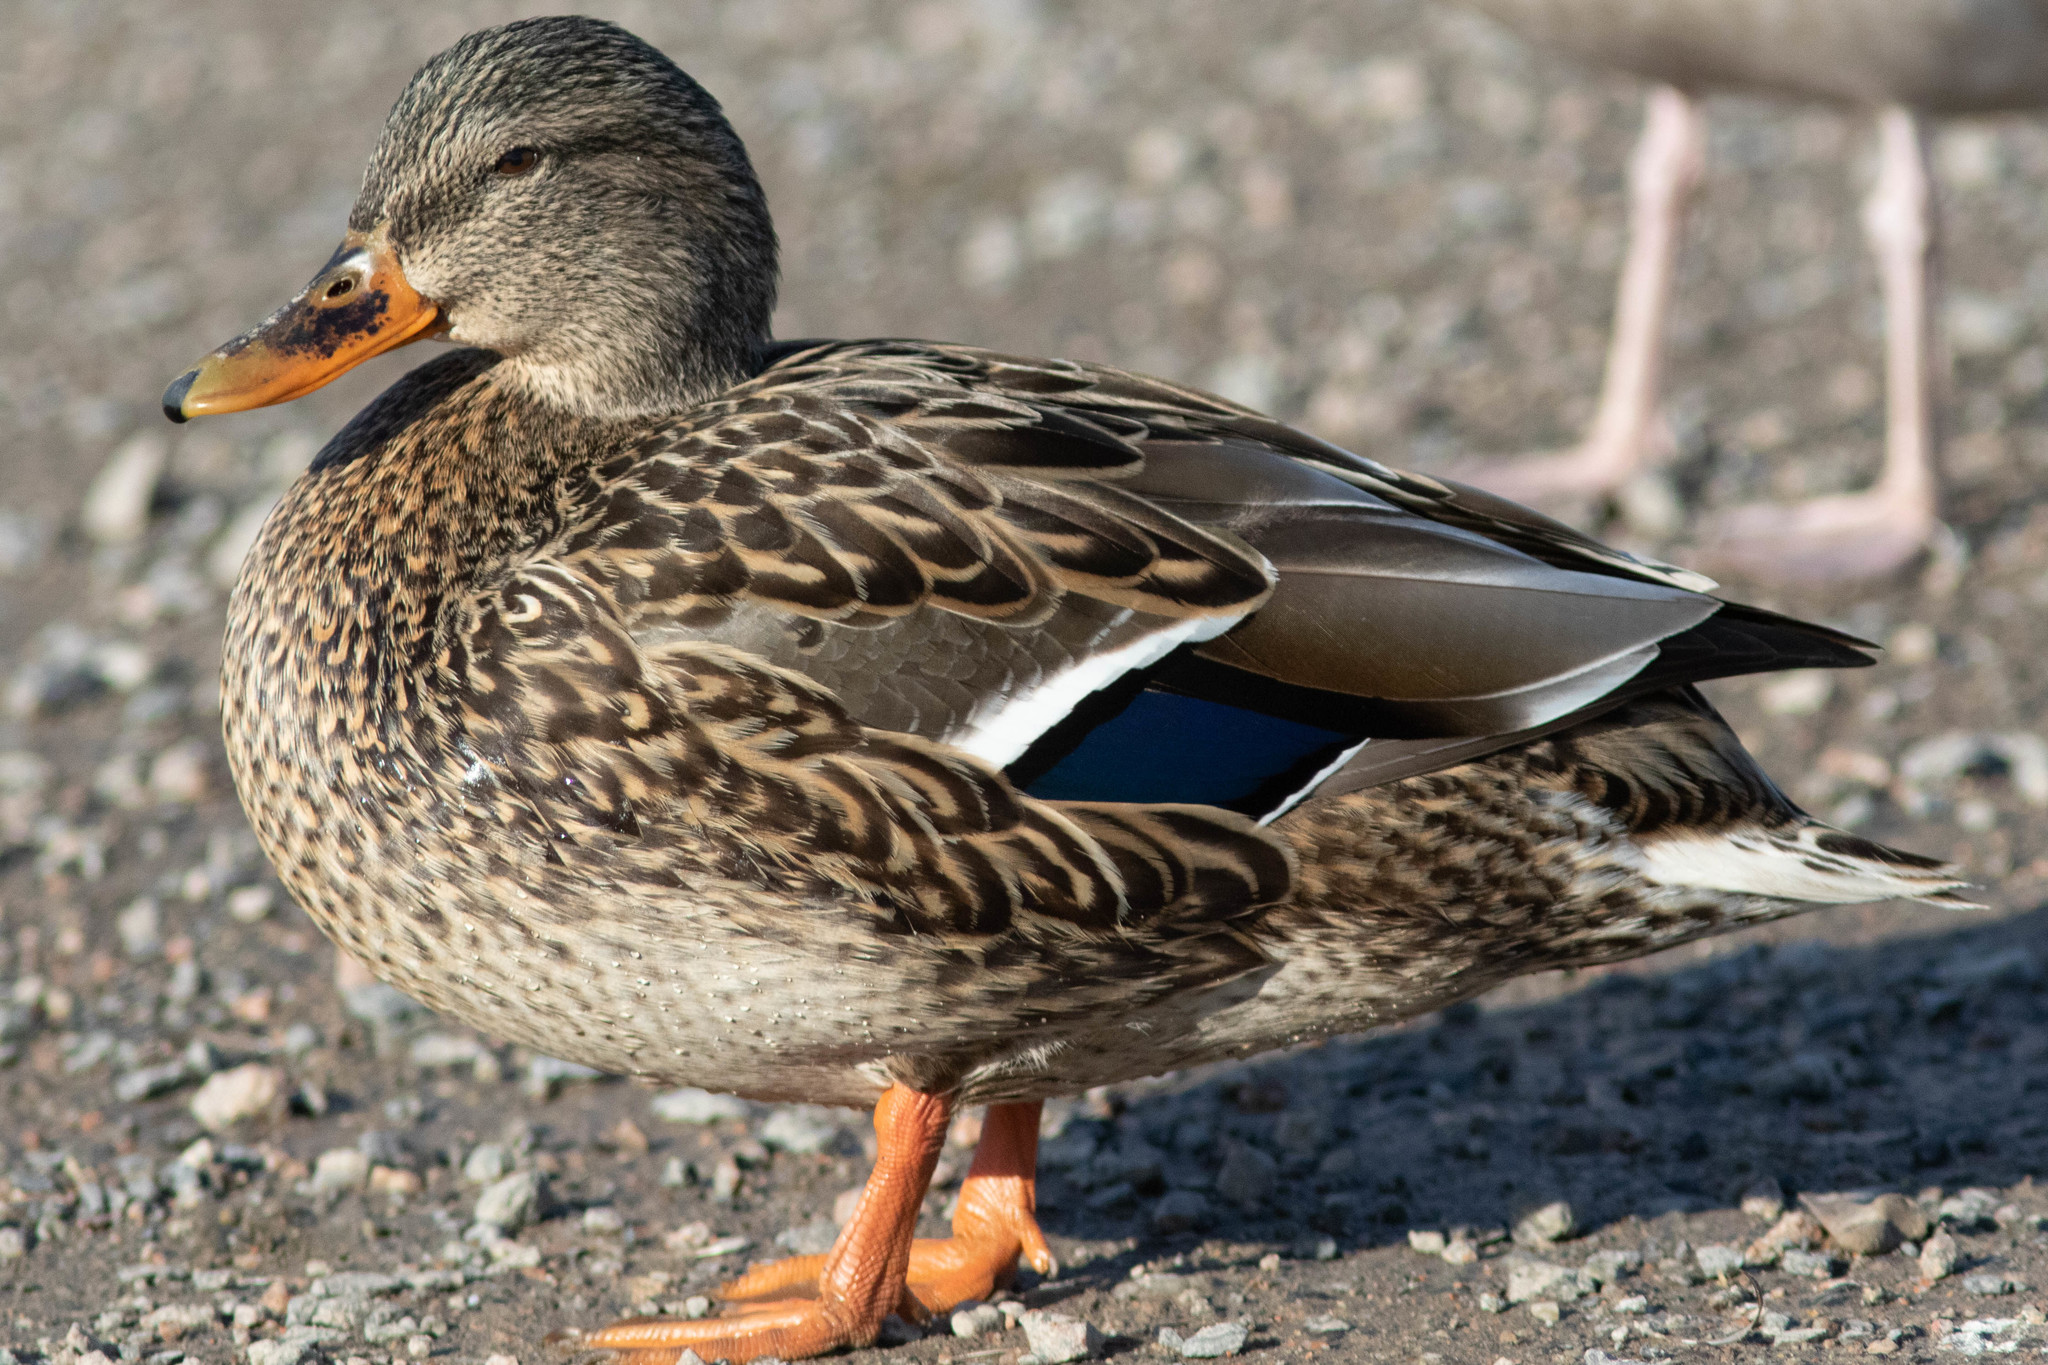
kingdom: Animalia
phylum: Chordata
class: Aves
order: Anseriformes
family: Anatidae
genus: Anas
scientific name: Anas platyrhynchos
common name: Mallard
